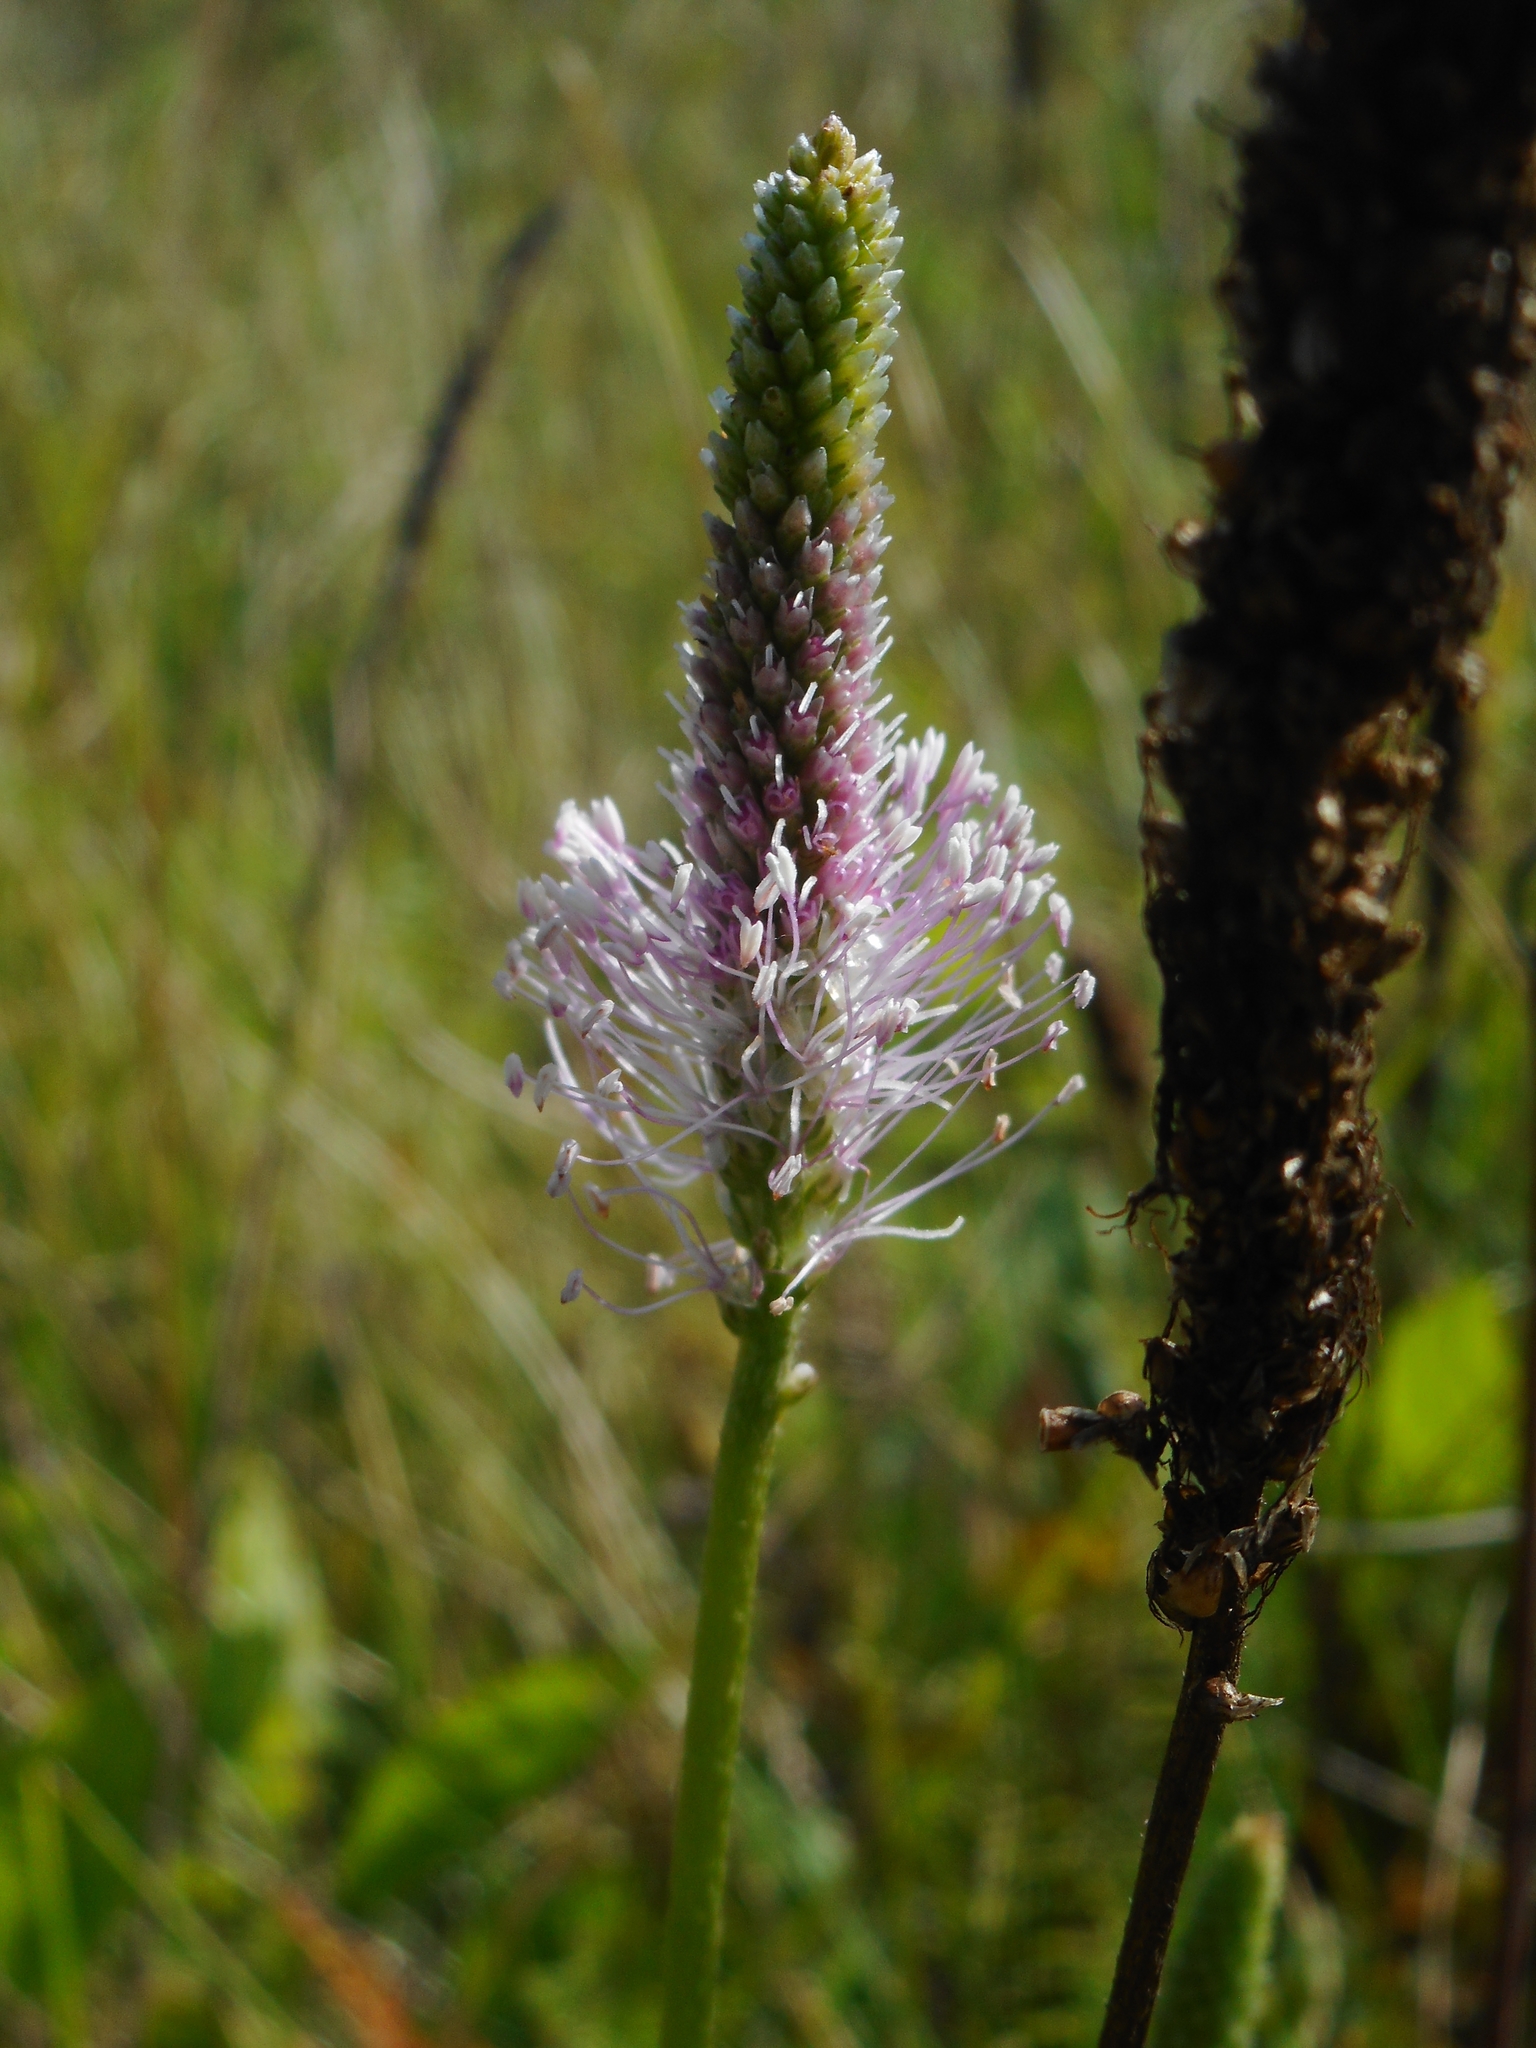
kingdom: Plantae
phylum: Tracheophyta
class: Magnoliopsida
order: Lamiales
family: Plantaginaceae
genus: Plantago
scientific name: Plantago media
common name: Hoary plantain
